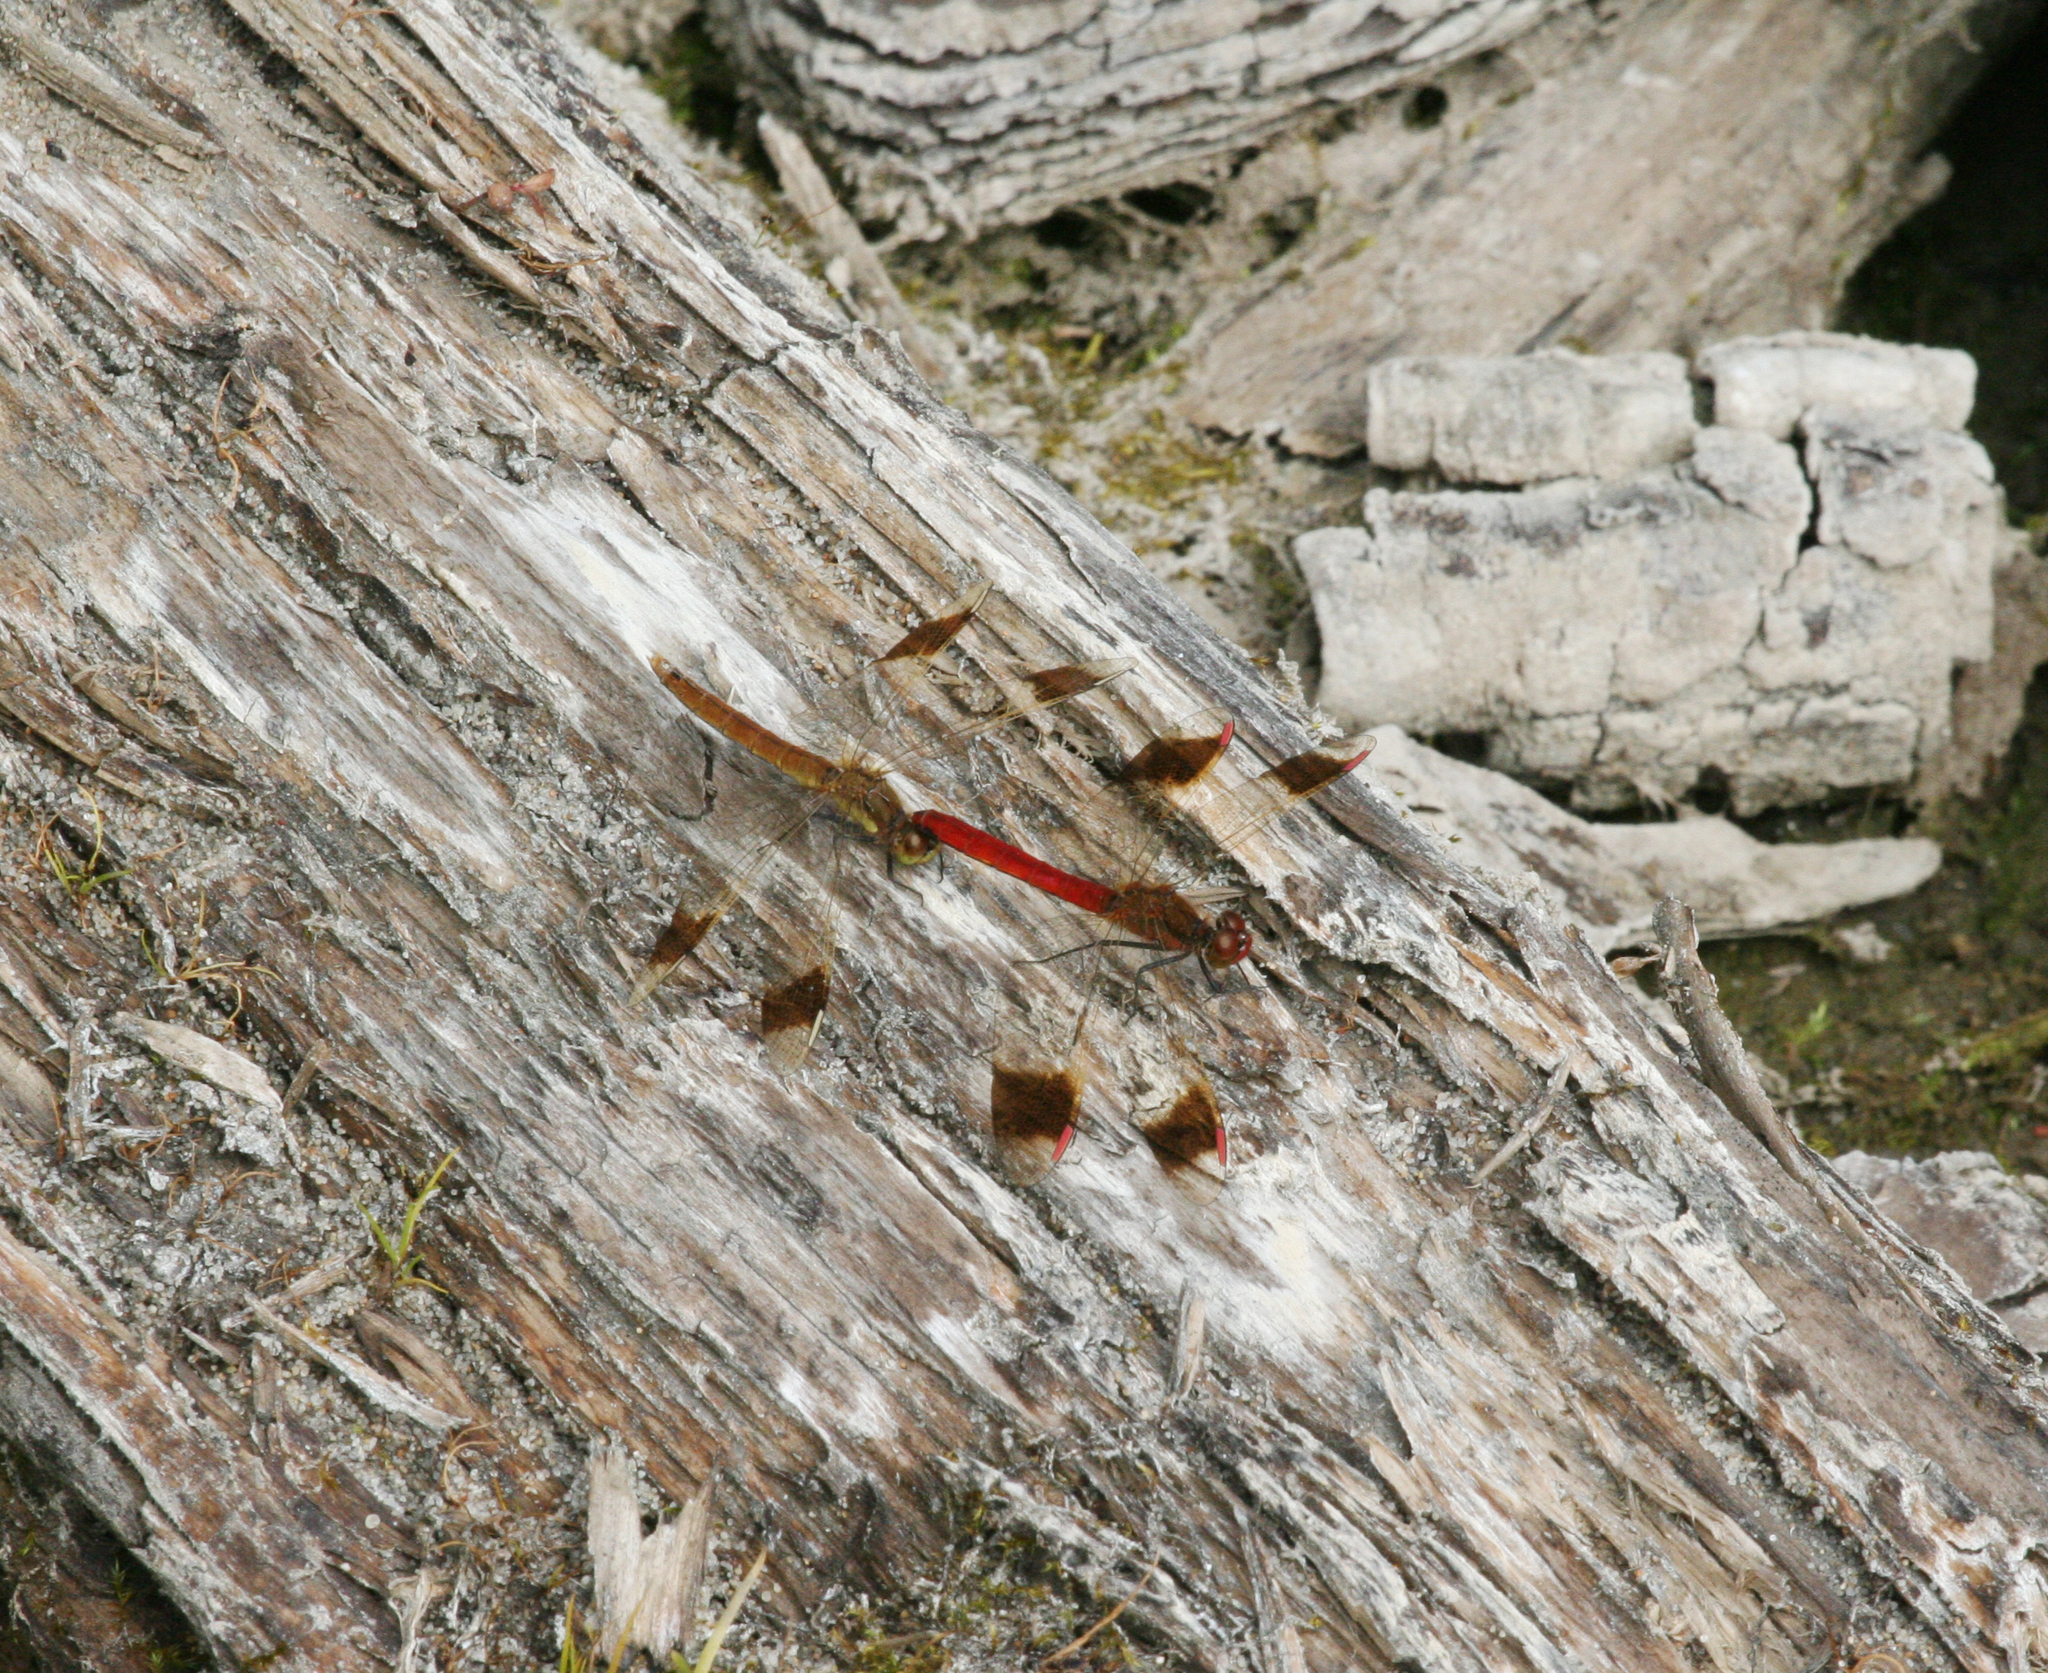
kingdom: Animalia
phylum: Arthropoda
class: Insecta
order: Odonata
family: Libellulidae
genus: Sympetrum
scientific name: Sympetrum pedemontanum
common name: Banded darter
